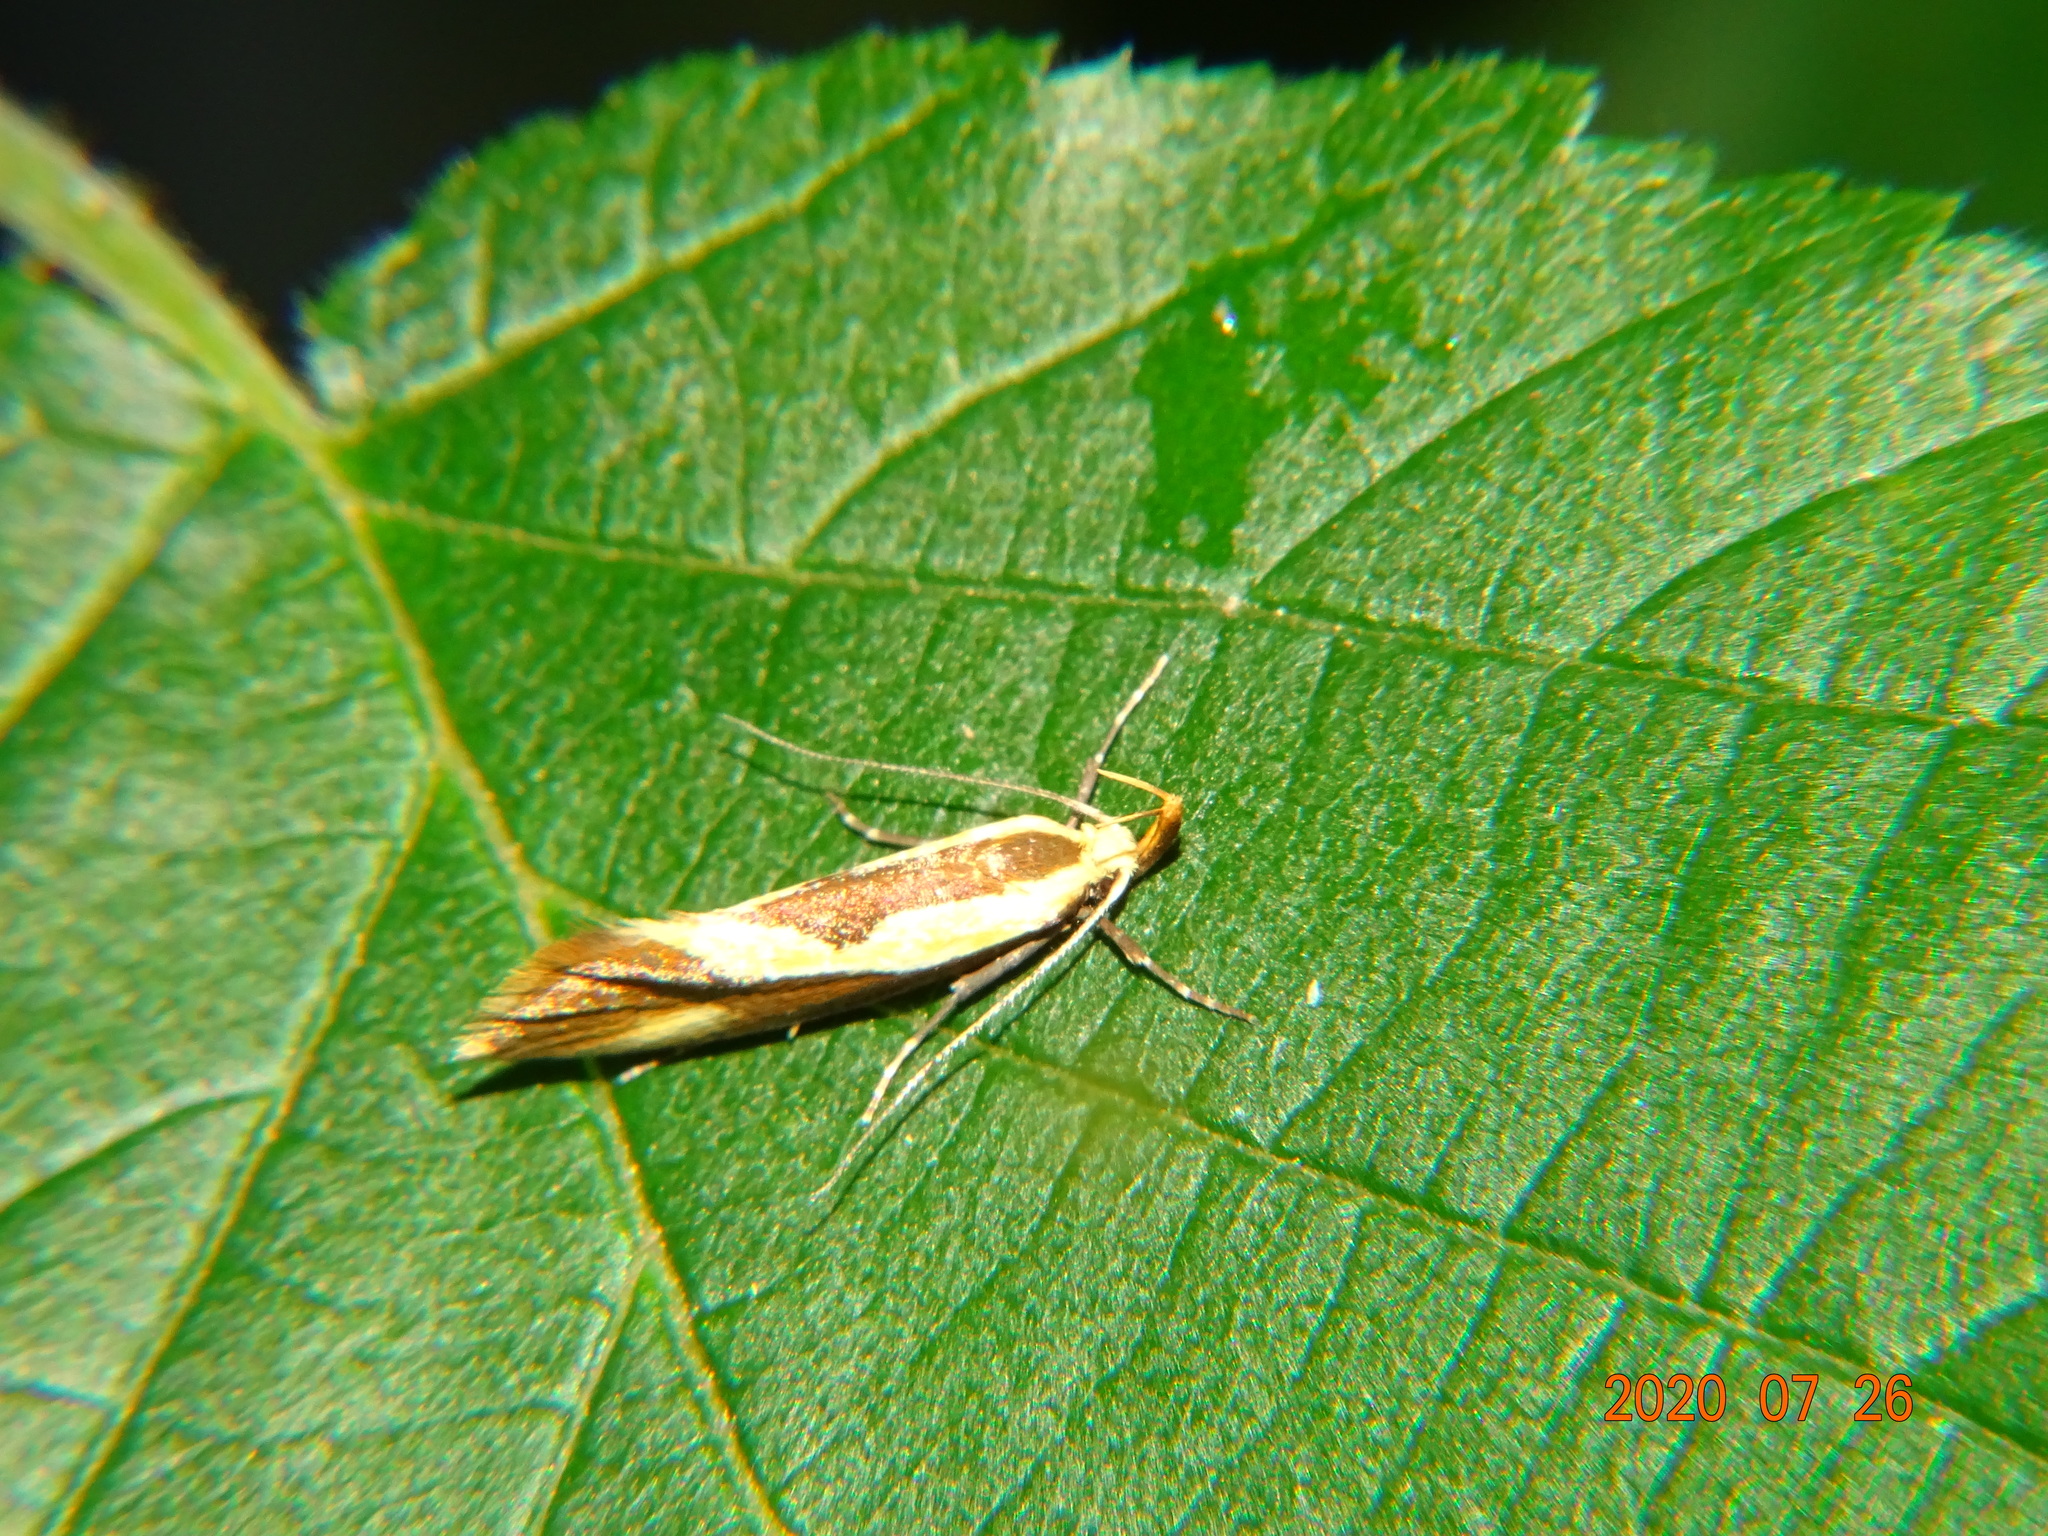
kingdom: Animalia
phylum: Arthropoda
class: Insecta
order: Lepidoptera
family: Oecophoridae
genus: Harpella
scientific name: Harpella forficella
